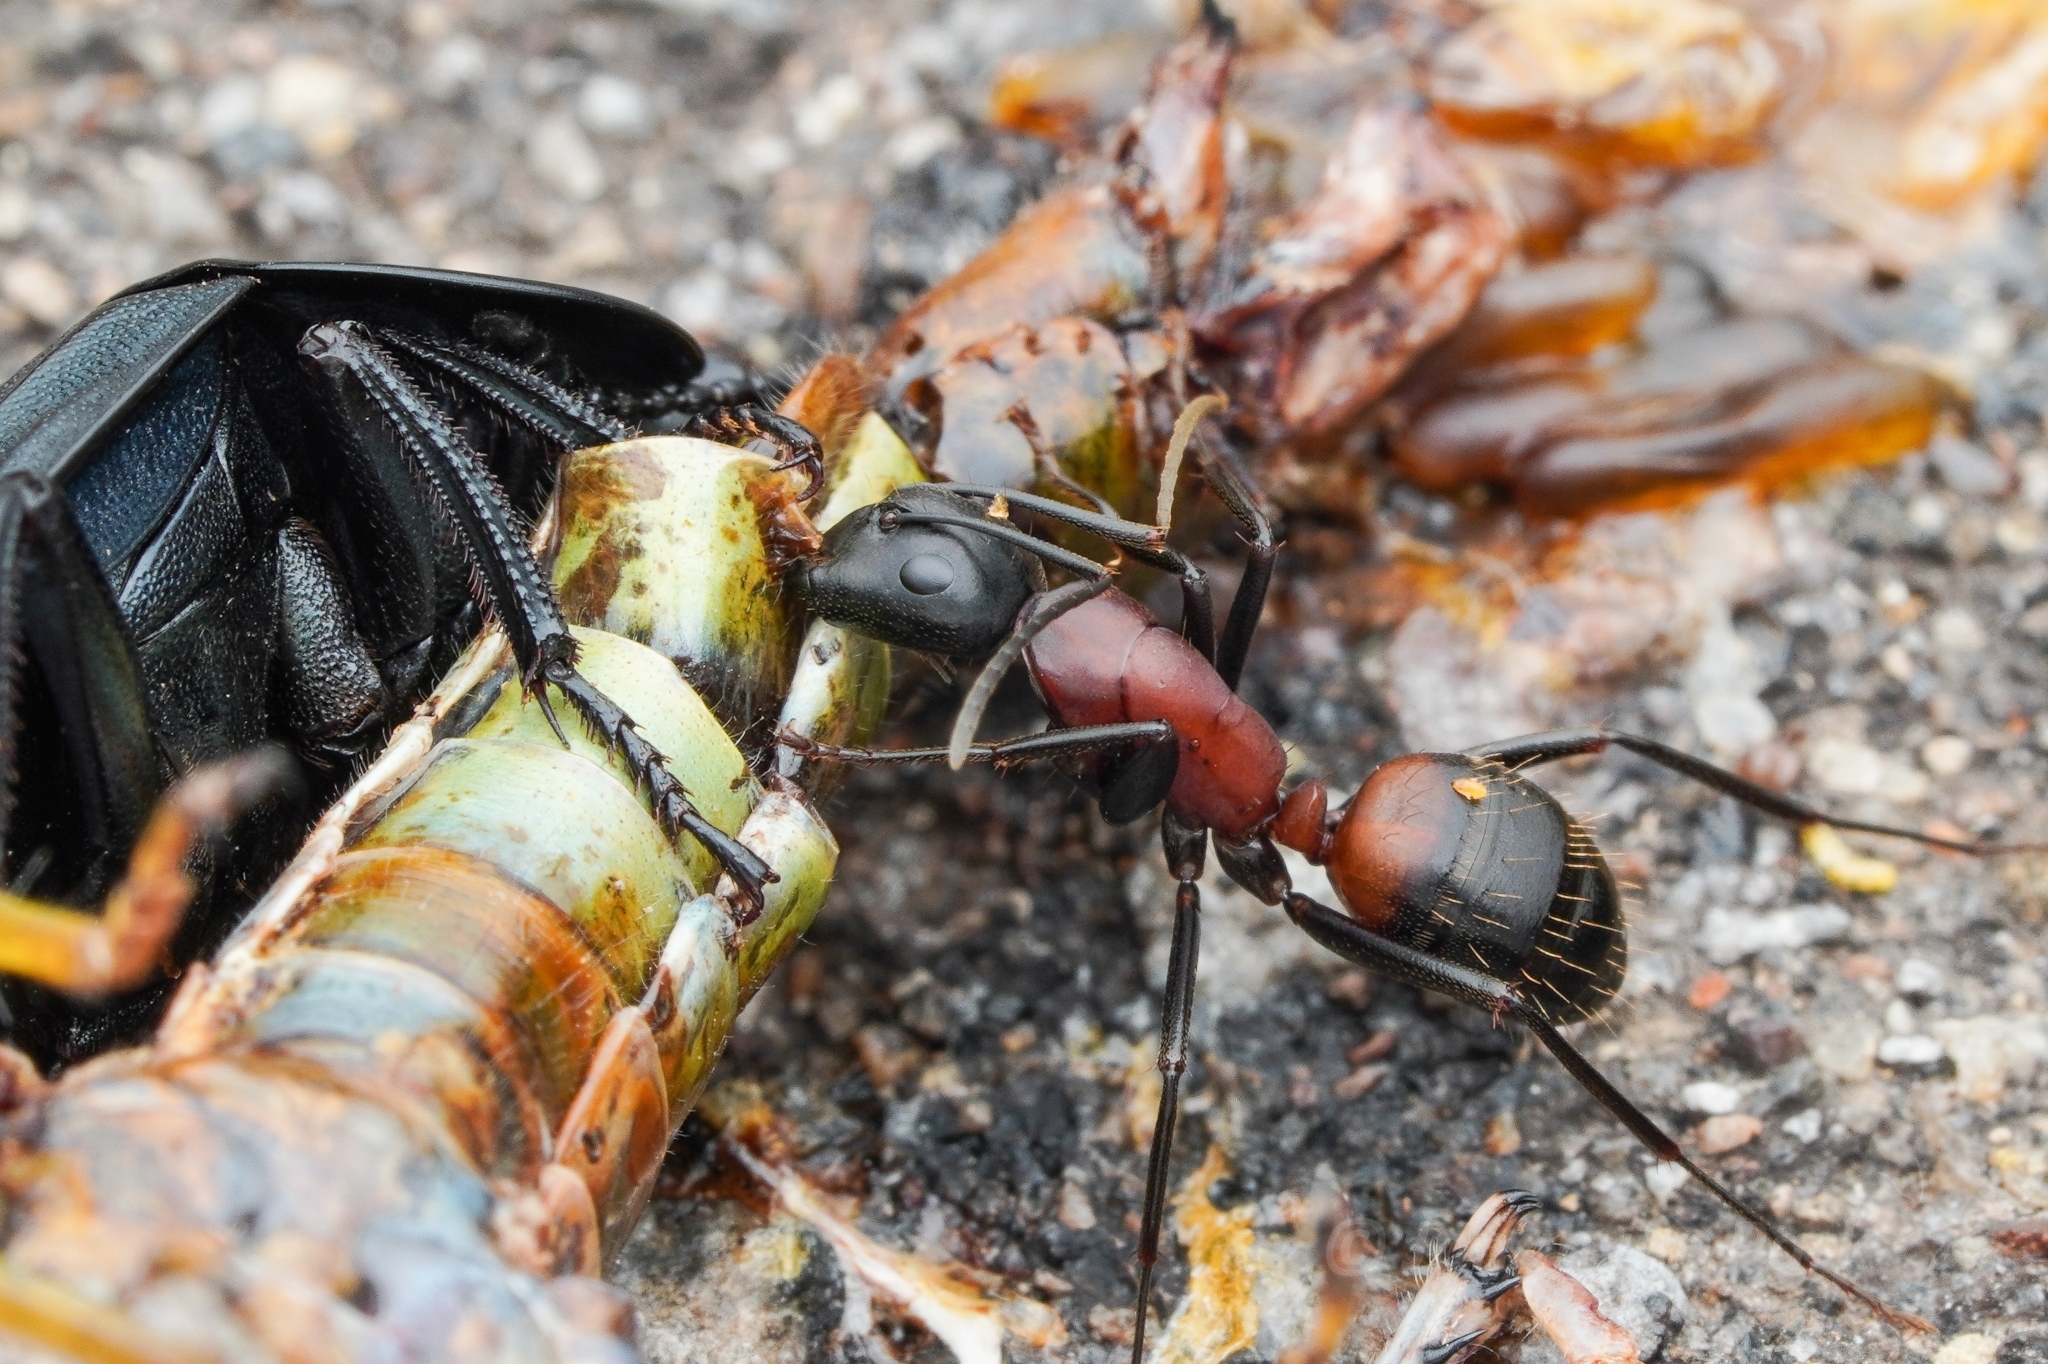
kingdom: Animalia
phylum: Arthropoda
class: Insecta
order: Hymenoptera
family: Formicidae
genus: Camponotus
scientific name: Camponotus obscuripes
